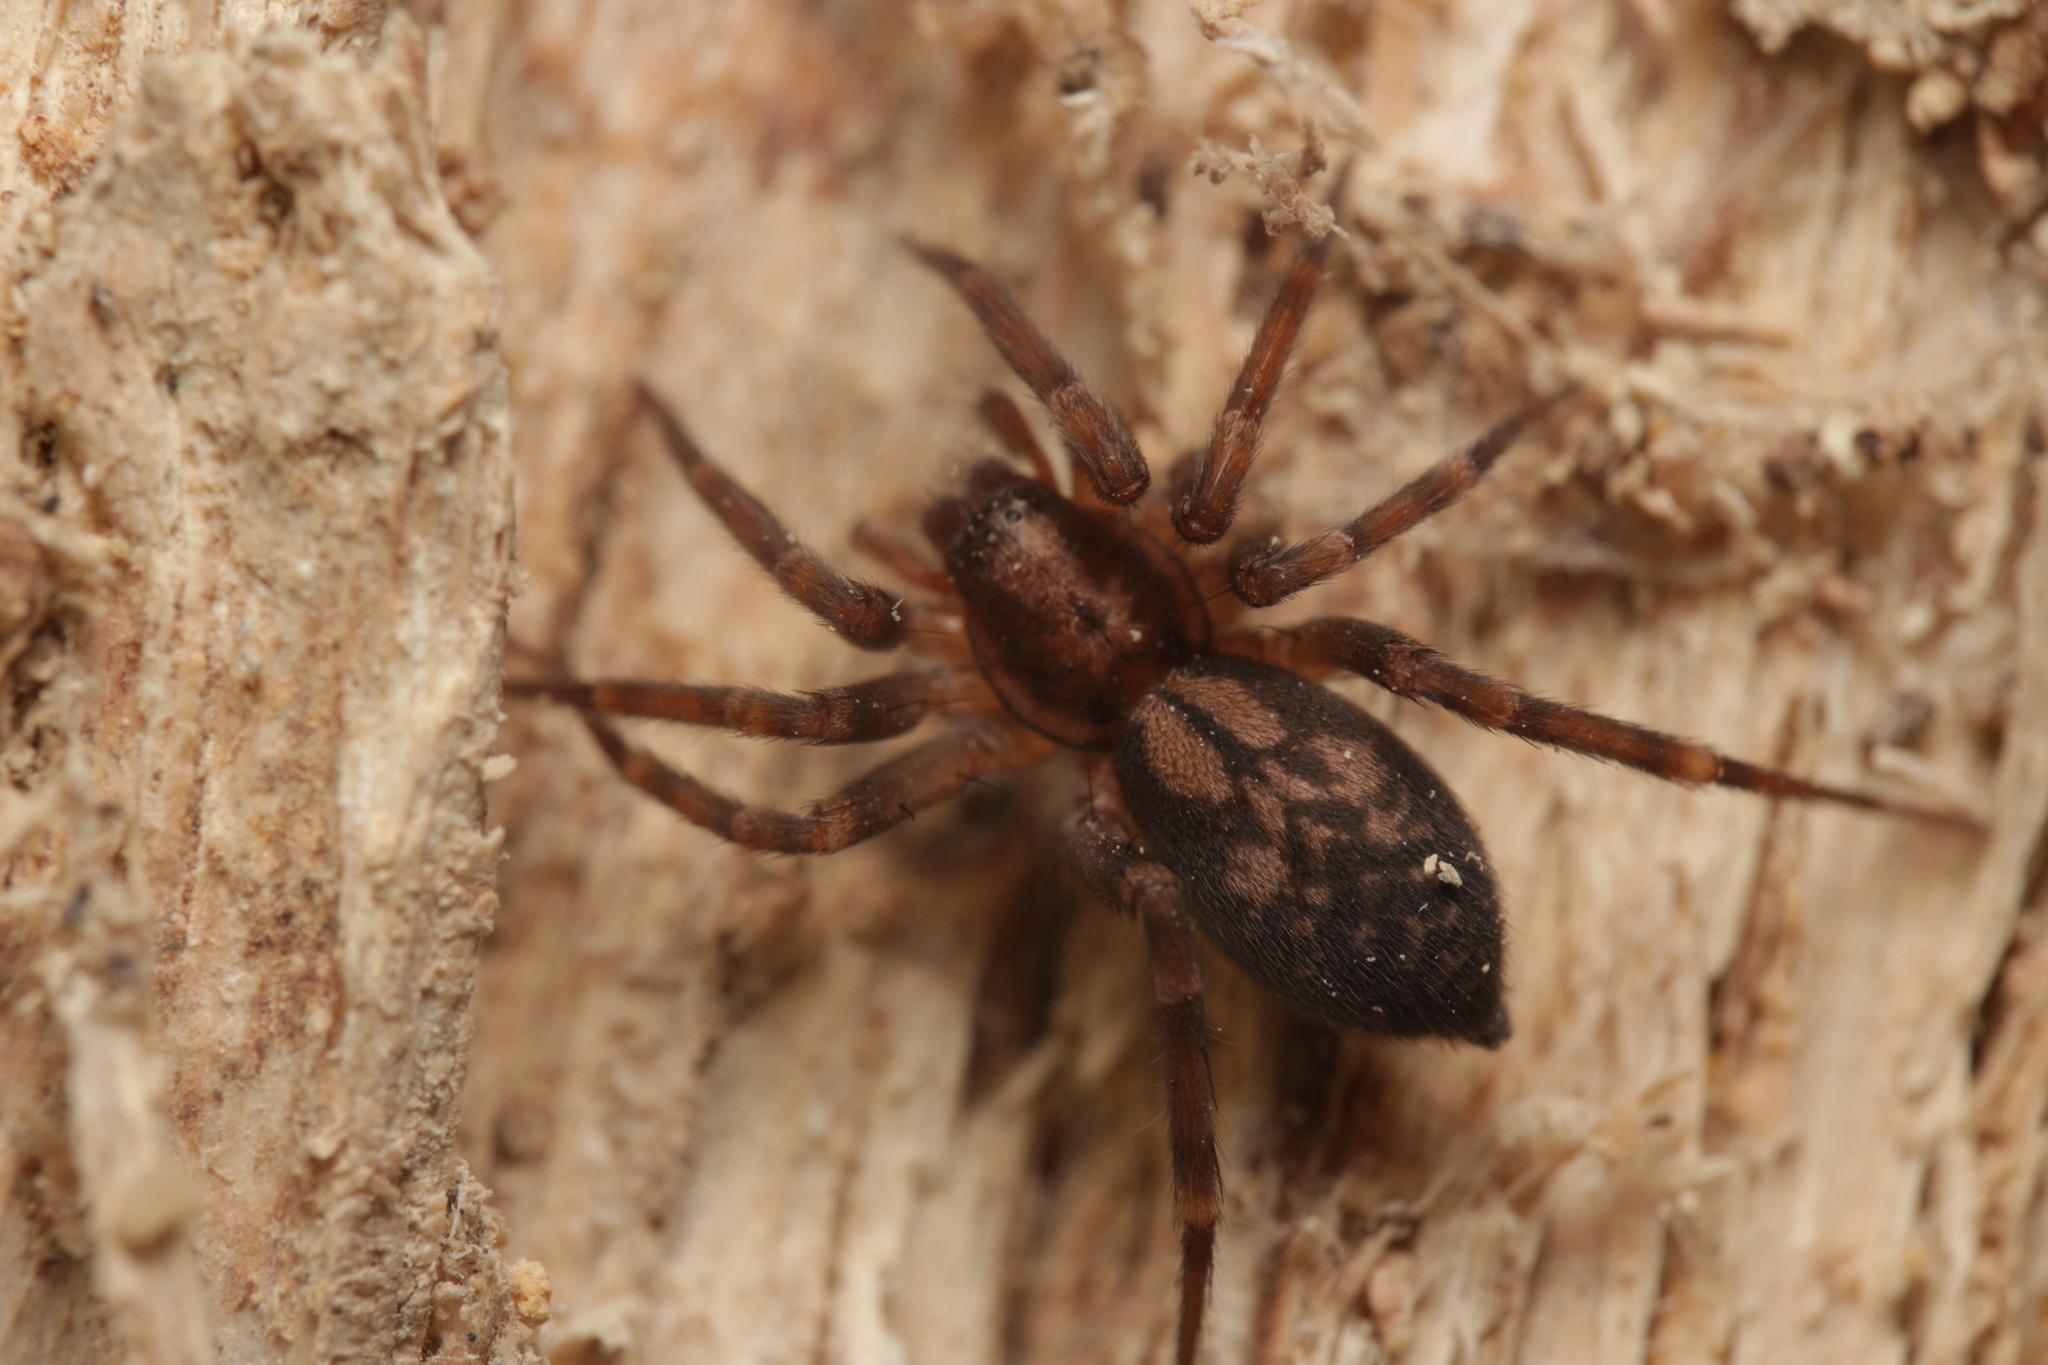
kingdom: Animalia
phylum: Arthropoda
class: Arachnida
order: Araneae
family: Liocranidae
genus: Liocranum
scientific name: Liocranum rupicola
